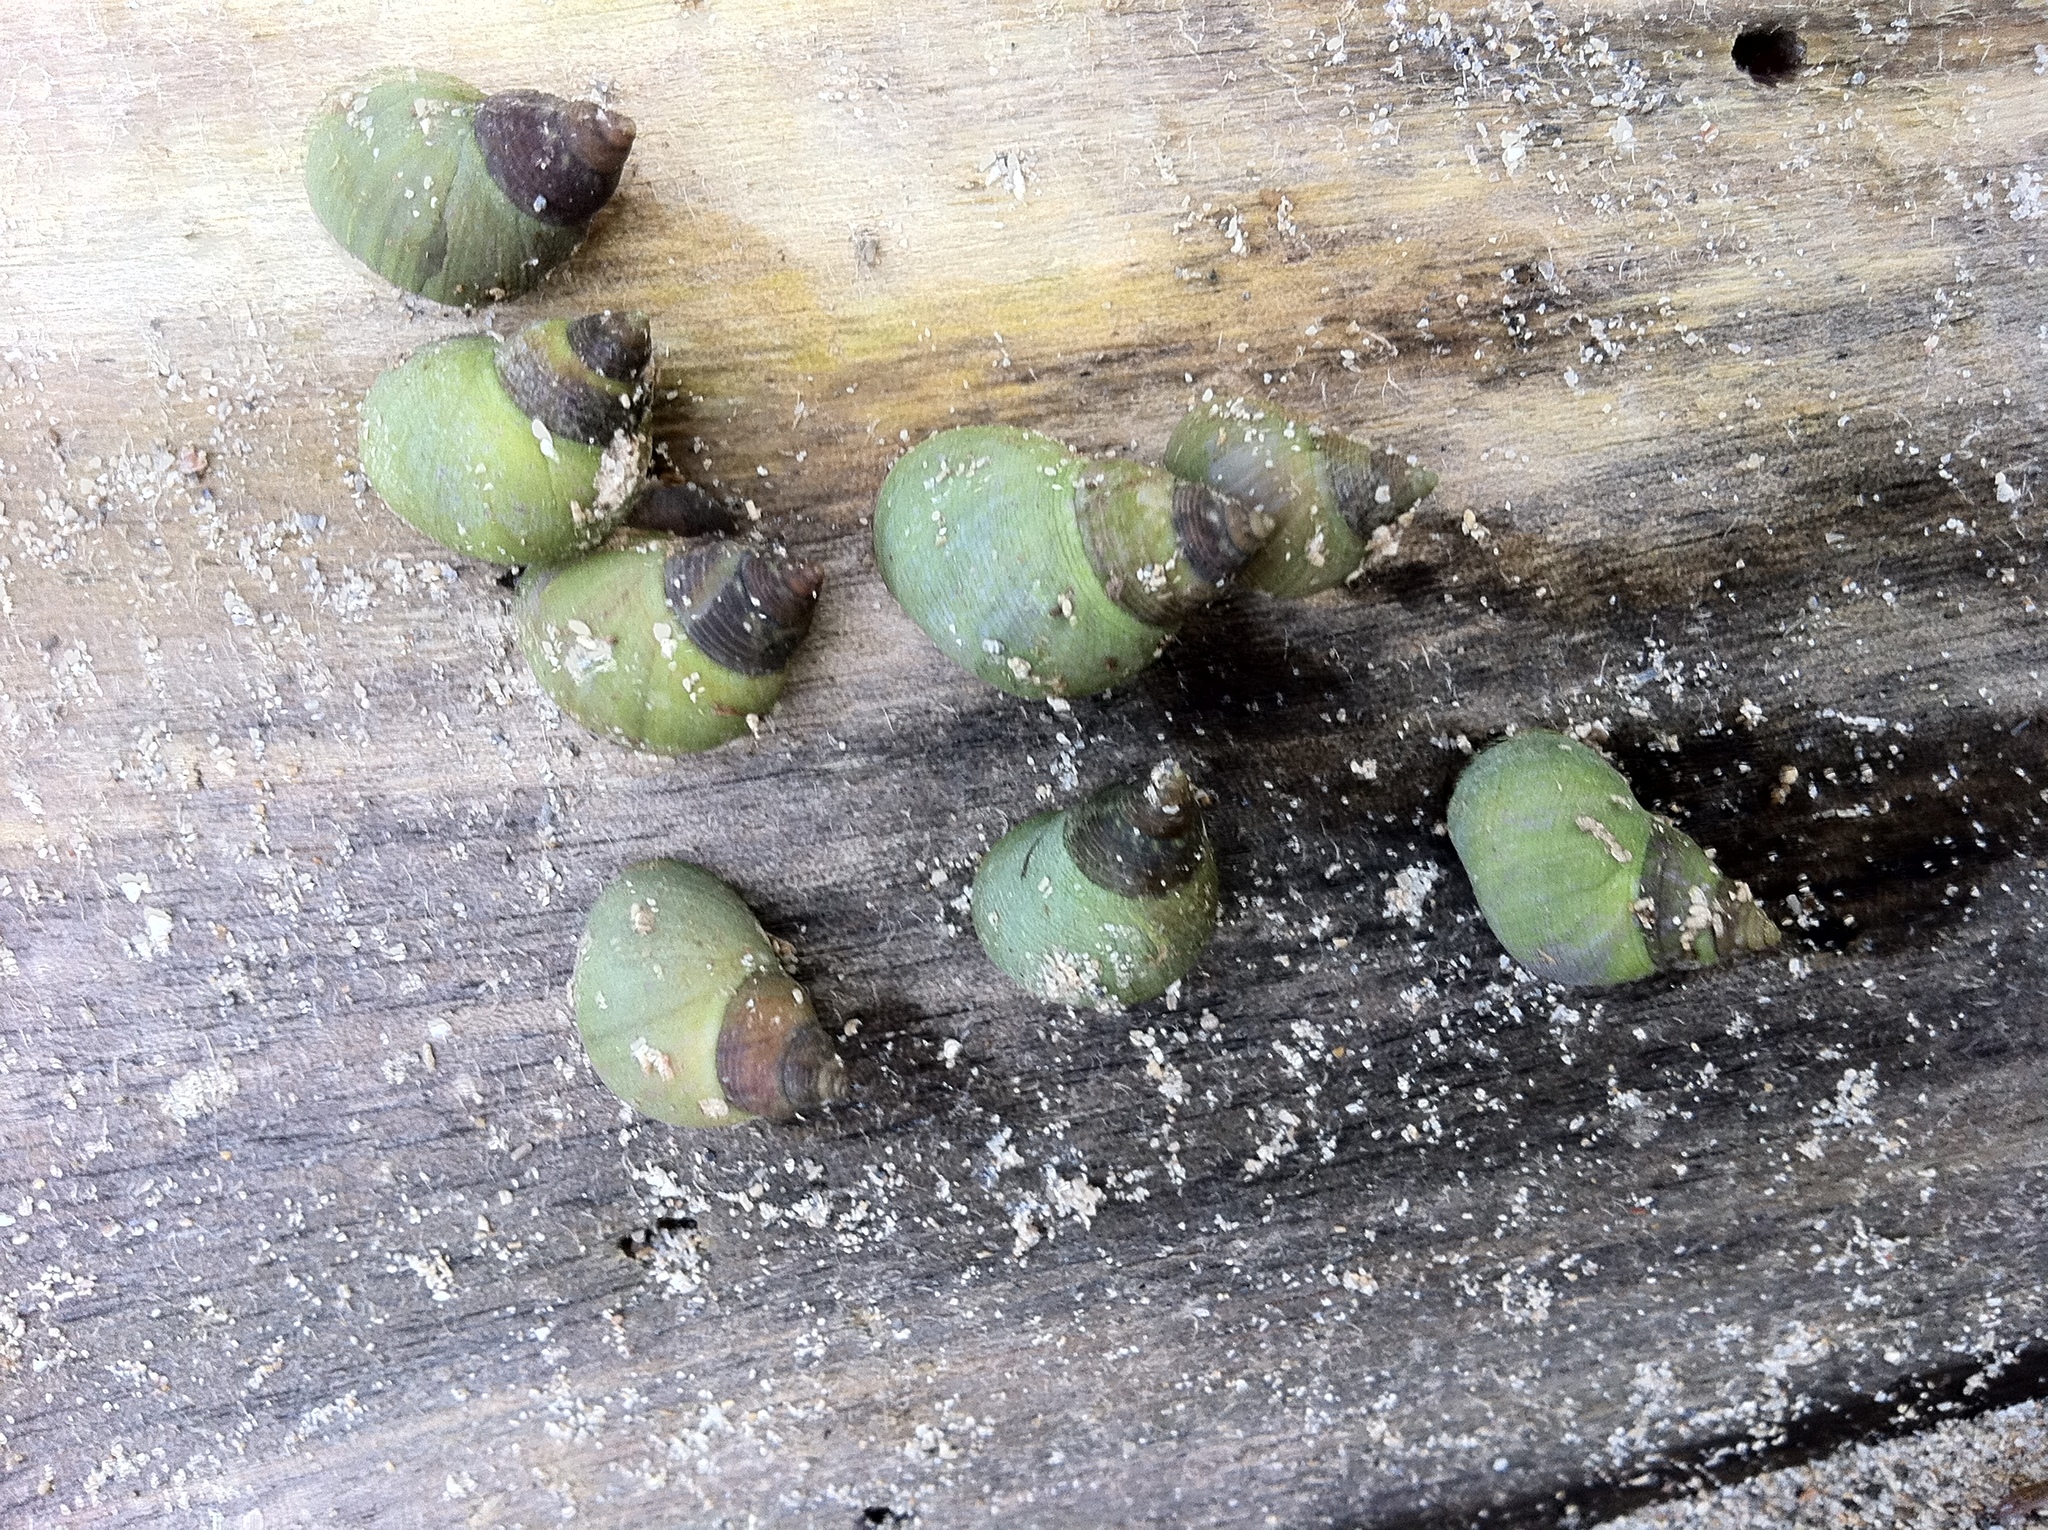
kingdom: Animalia
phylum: Mollusca
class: Gastropoda
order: Littorinimorpha
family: Littorinidae
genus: Littoraria
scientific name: Littoraria nebulosa
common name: Cloudy periwinkle
